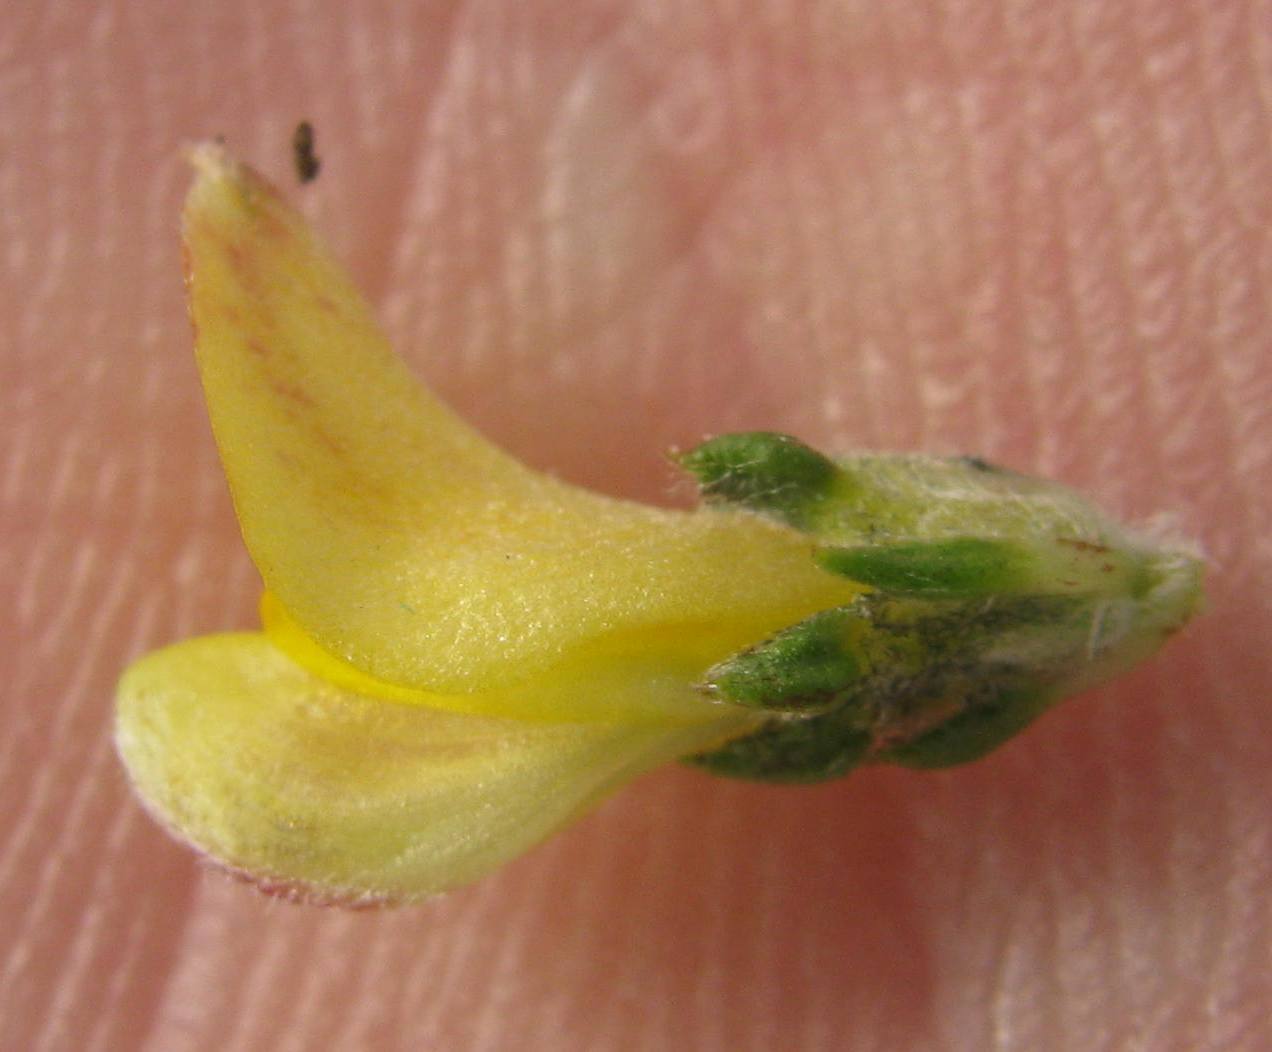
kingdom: Plantae
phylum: Tracheophyta
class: Magnoliopsida
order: Fabales
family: Fabaceae
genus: Aspalathus
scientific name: Aspalathus opaca
